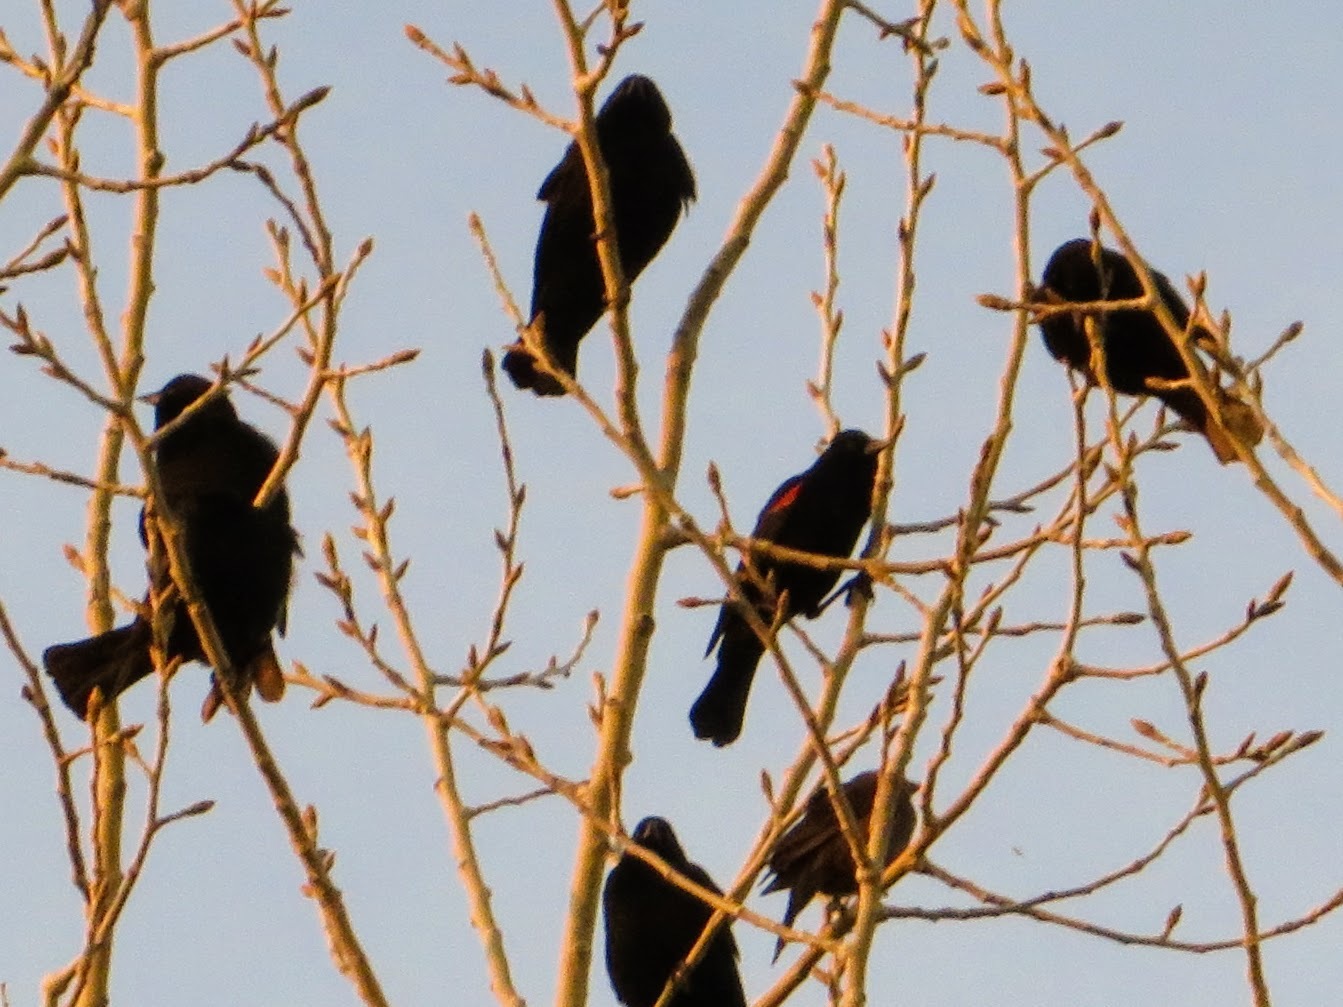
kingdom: Animalia
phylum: Chordata
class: Aves
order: Passeriformes
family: Icteridae
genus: Agelaius
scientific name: Agelaius phoeniceus
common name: Red-winged blackbird
